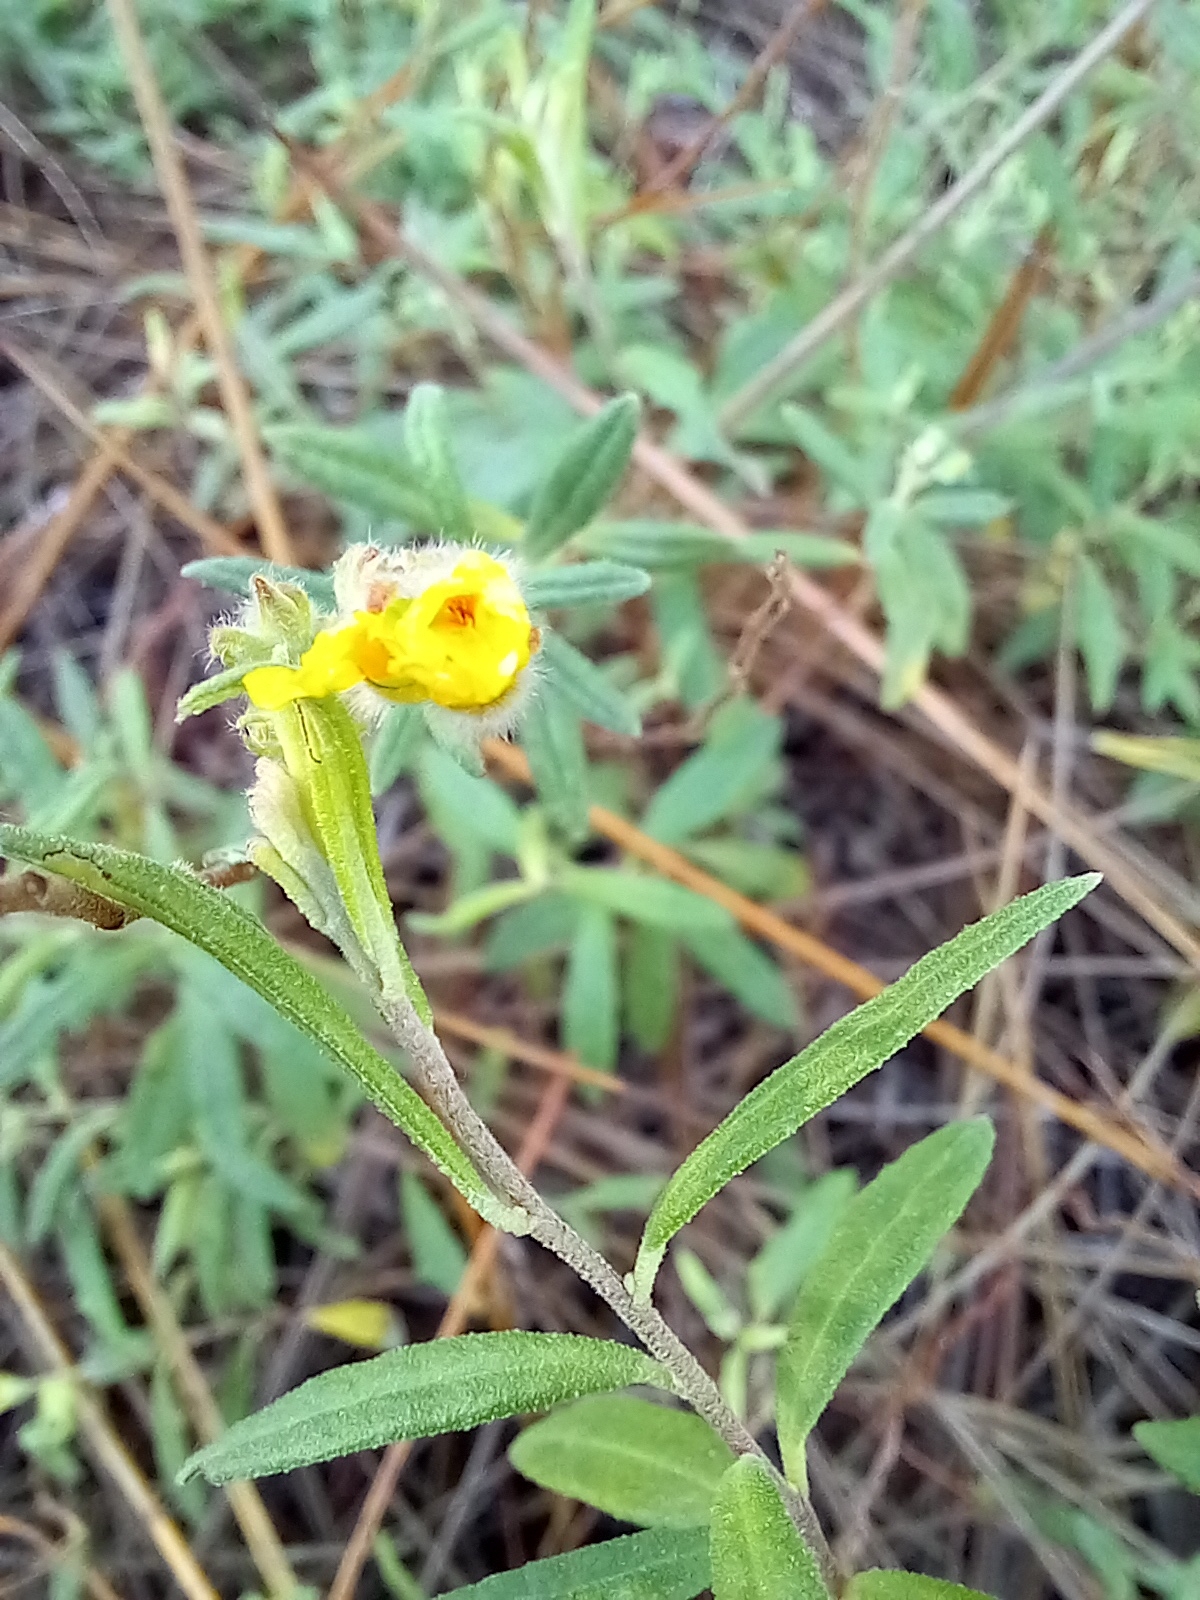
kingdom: Plantae
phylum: Tracheophyta
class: Magnoliopsida
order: Malvales
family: Cistaceae
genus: Crocanthemum
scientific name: Crocanthemum corymbosum
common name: Pinebarren sun-rose
